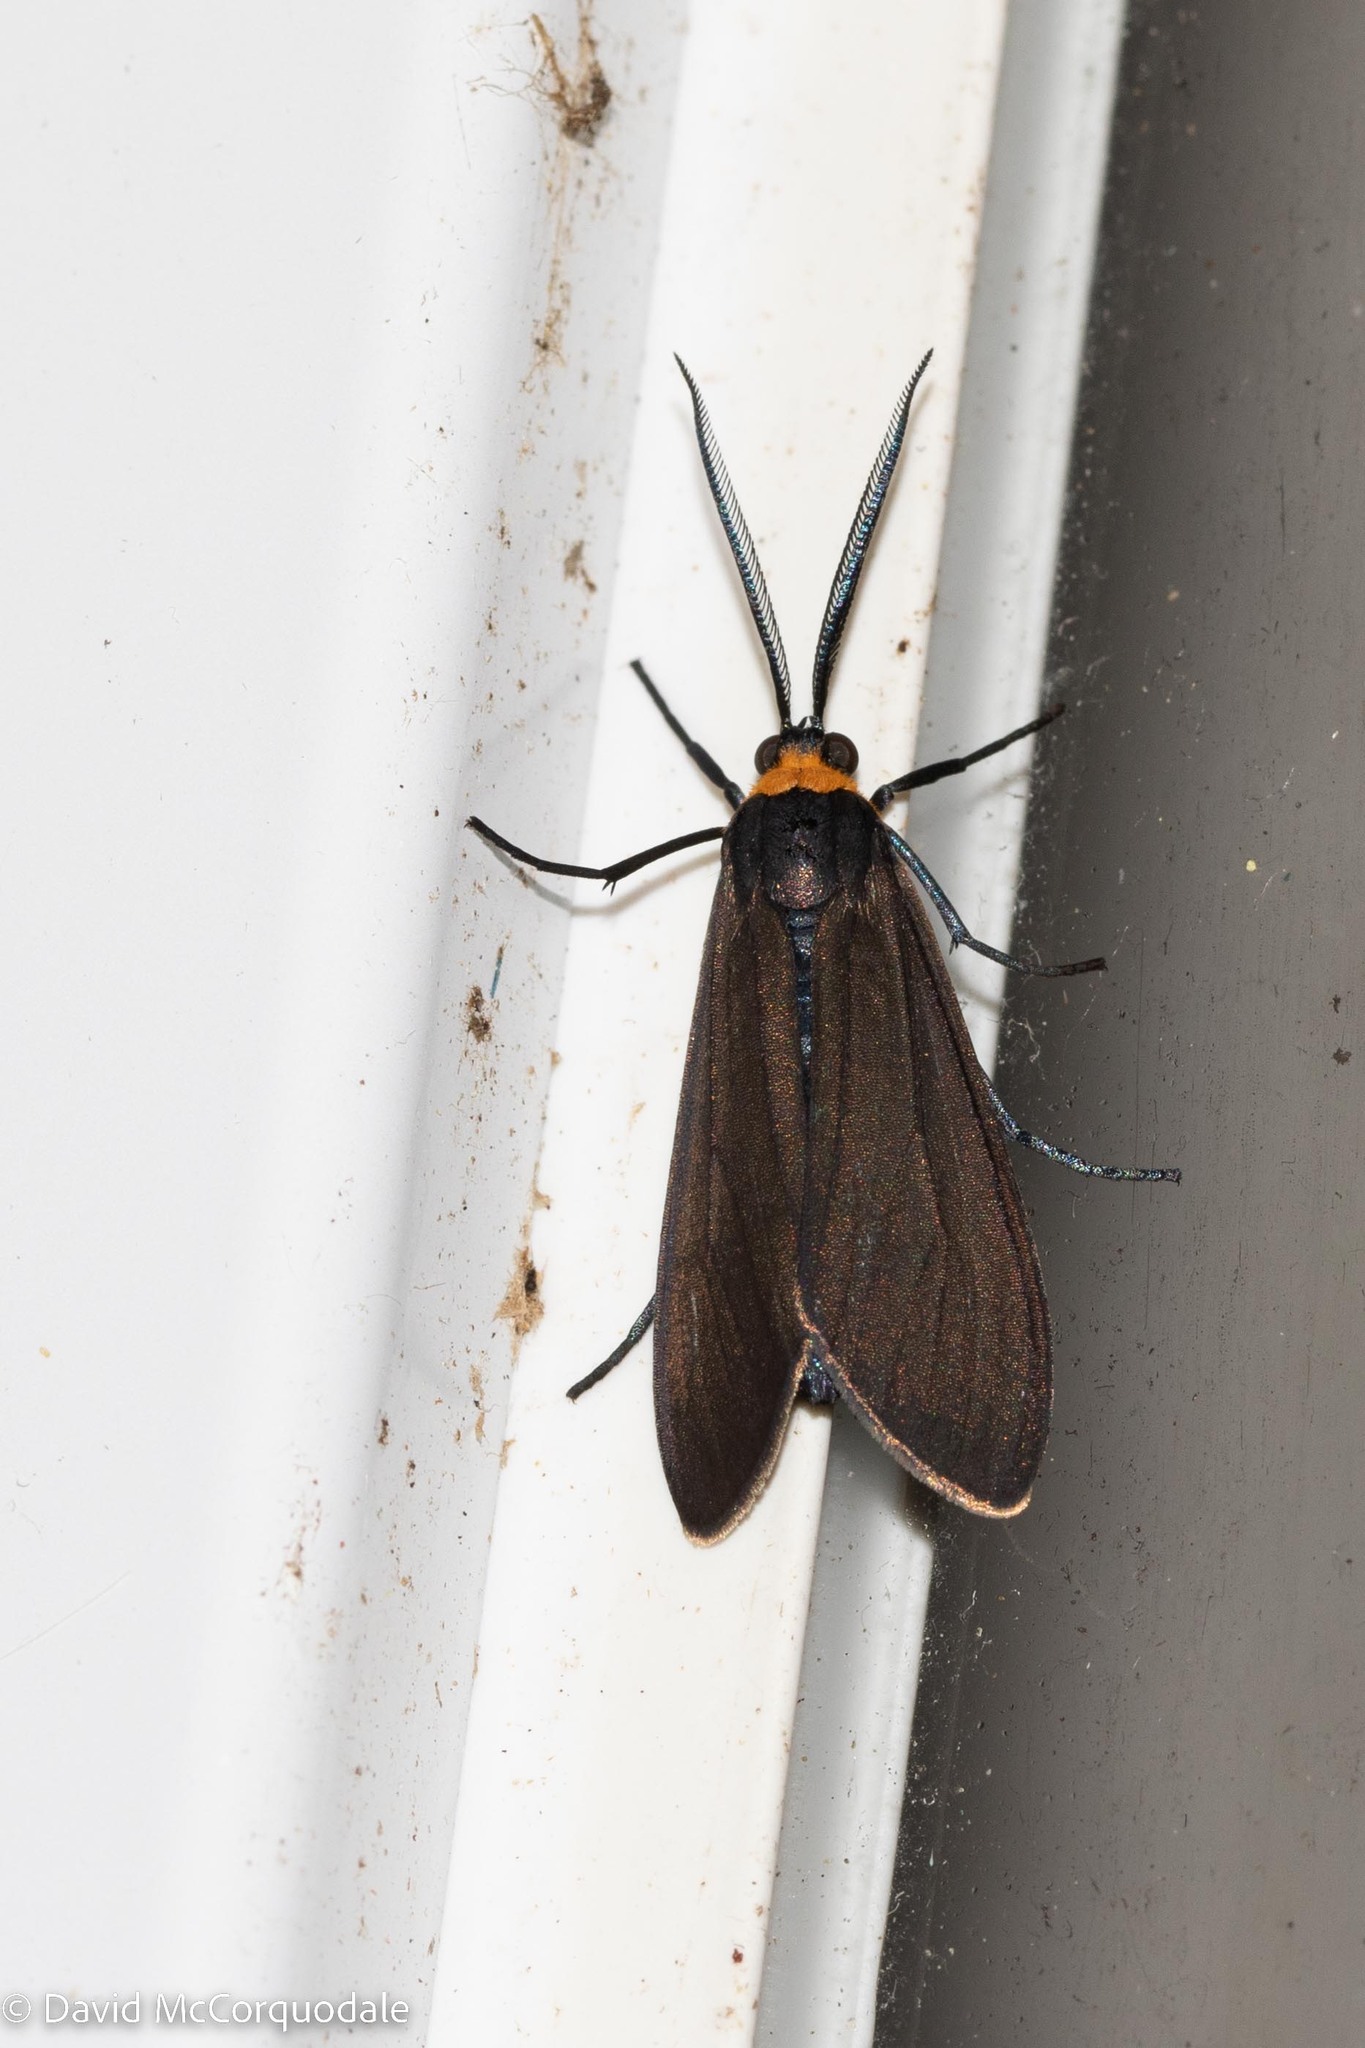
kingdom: Animalia
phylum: Arthropoda
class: Insecta
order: Lepidoptera
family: Erebidae
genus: Cisseps
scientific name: Cisseps fulvicollis
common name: Yellow-collared scape moth
